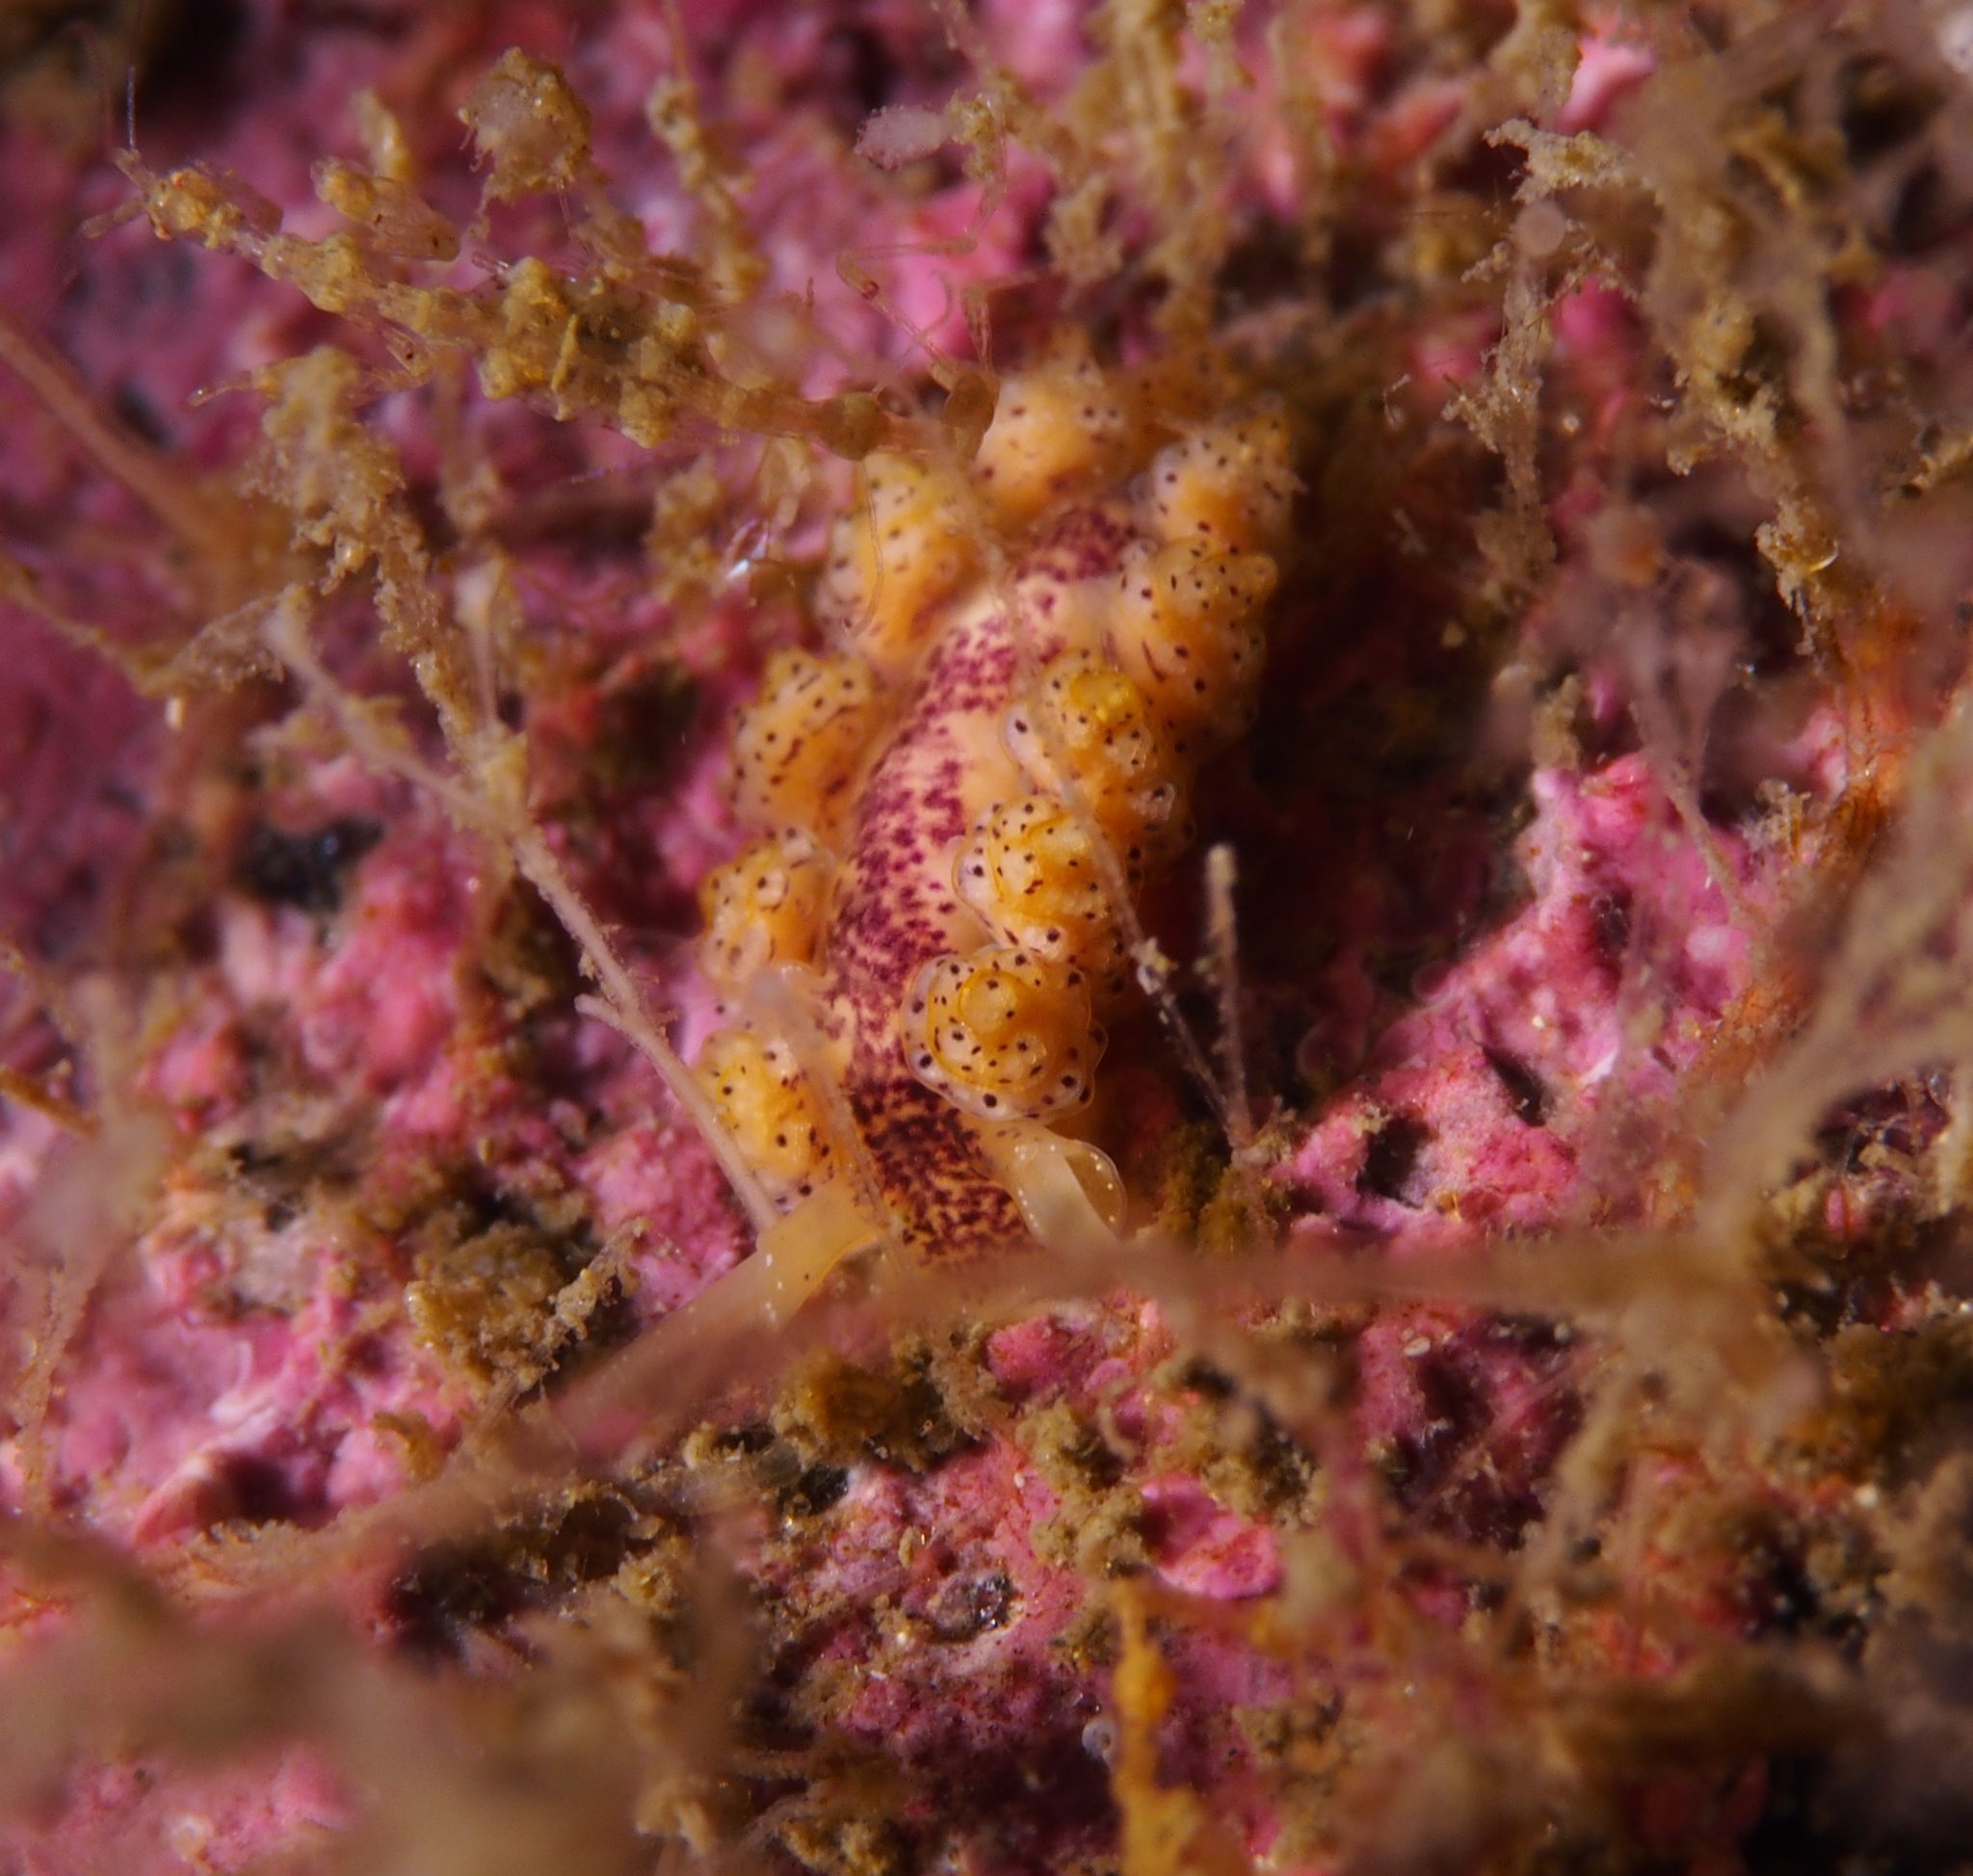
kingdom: Animalia
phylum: Mollusca
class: Gastropoda
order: Nudibranchia
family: Dotidae
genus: Doto
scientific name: Doto dunnei
